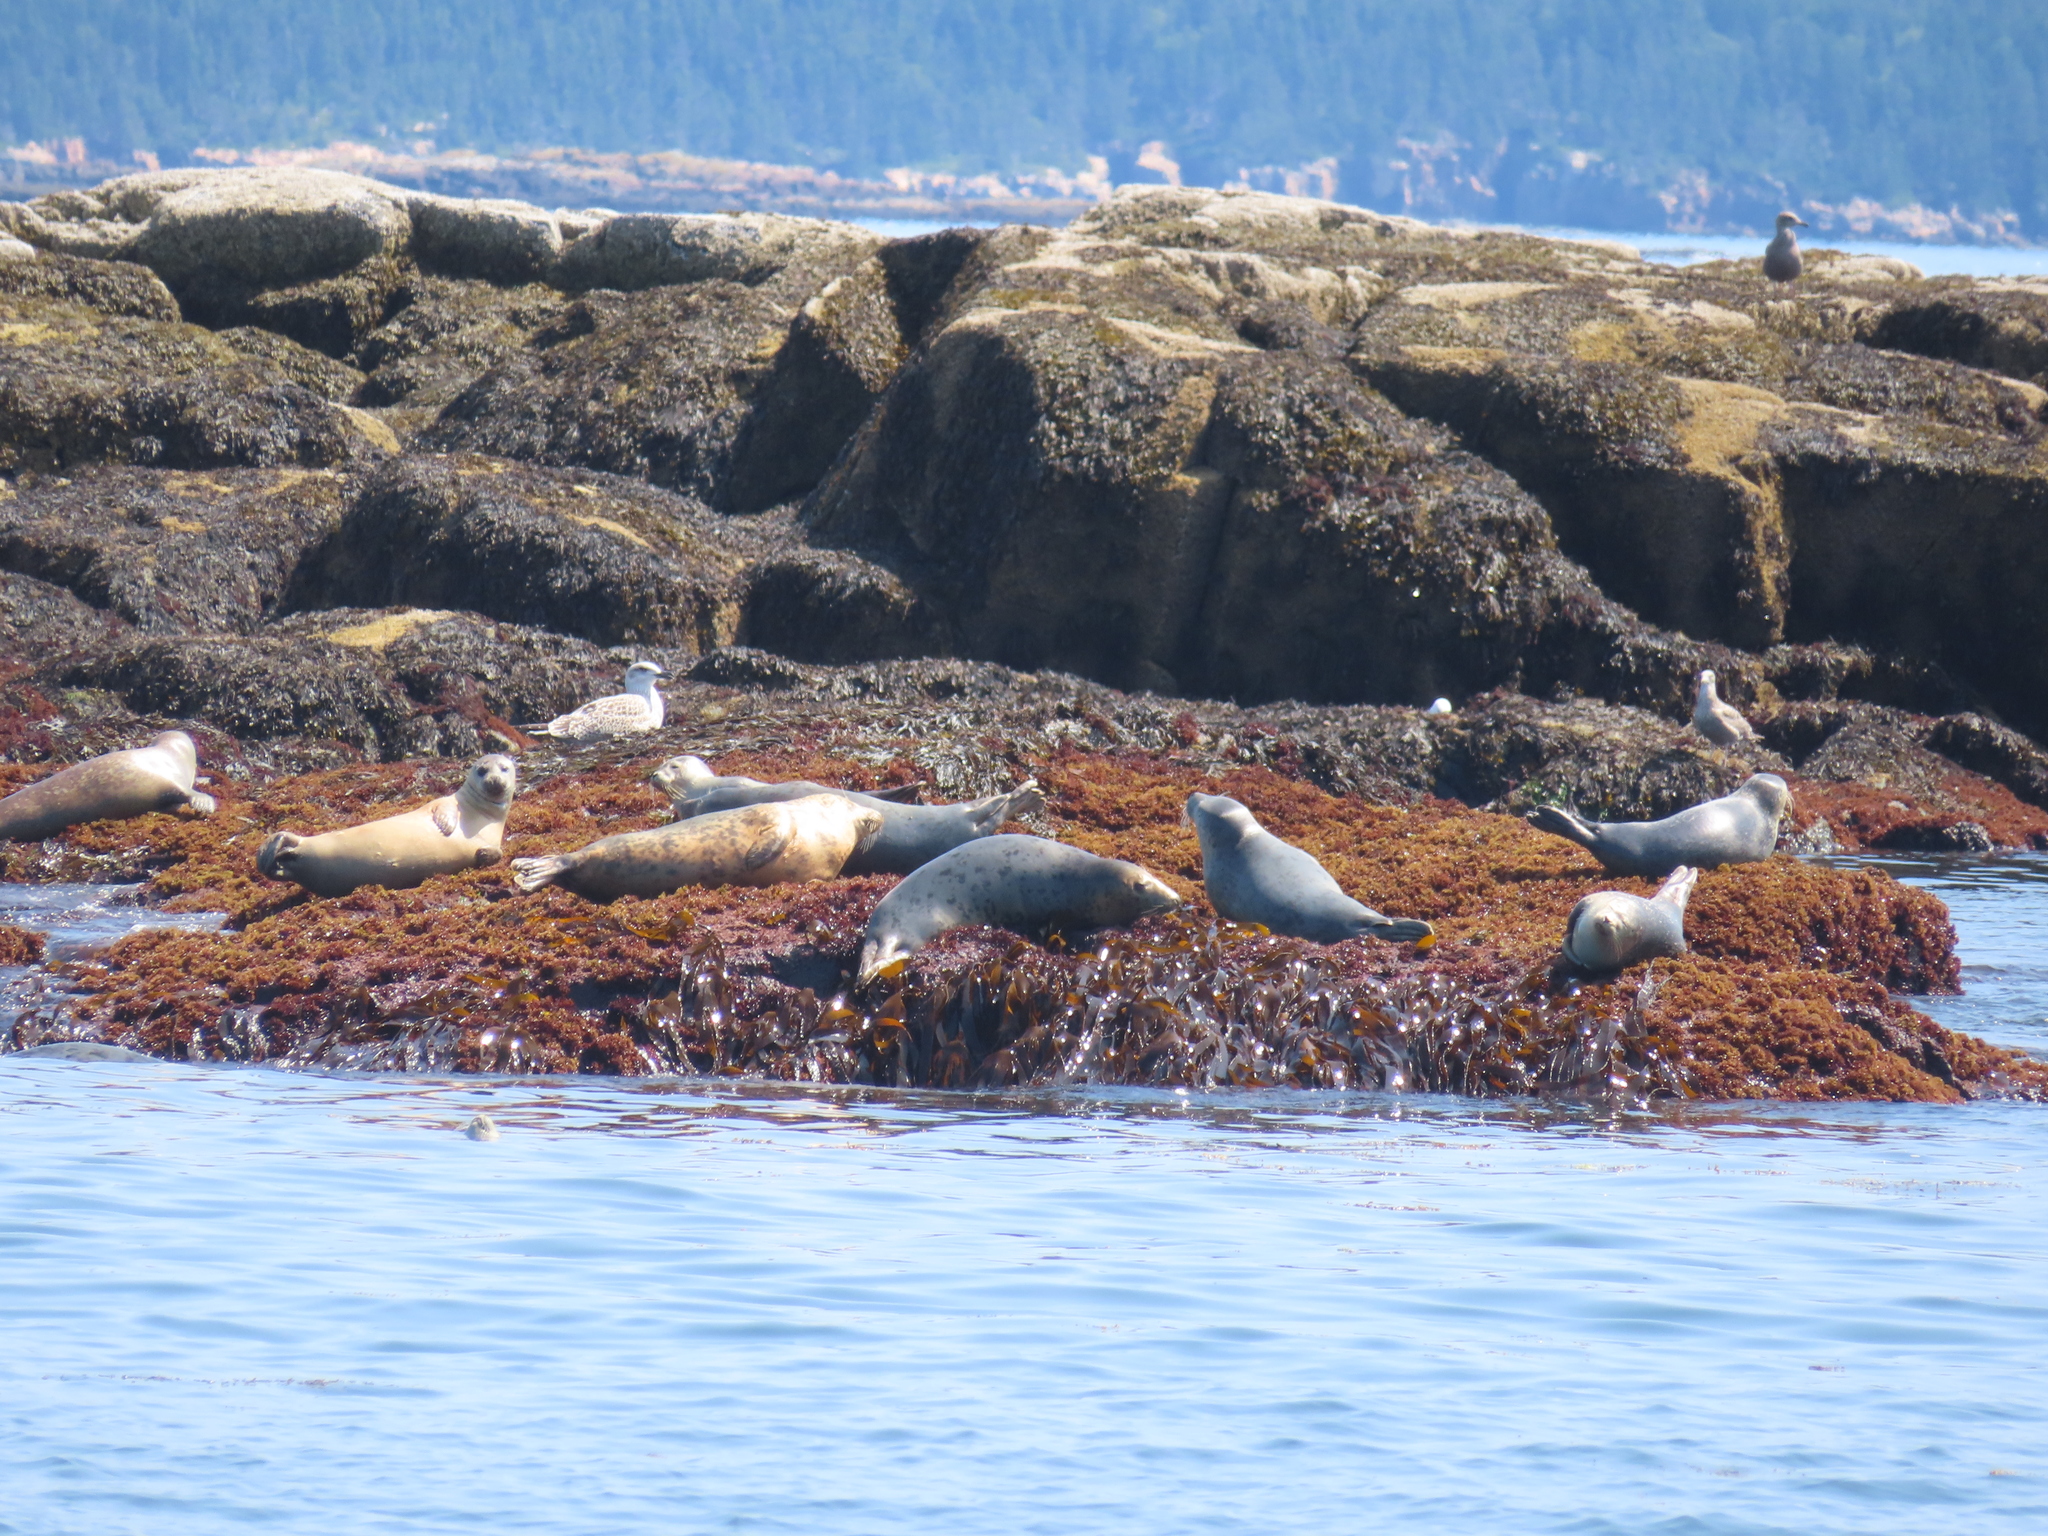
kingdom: Animalia
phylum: Chordata
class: Mammalia
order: Carnivora
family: Phocidae
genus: Phoca
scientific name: Phoca vitulina
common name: Harbor seal
